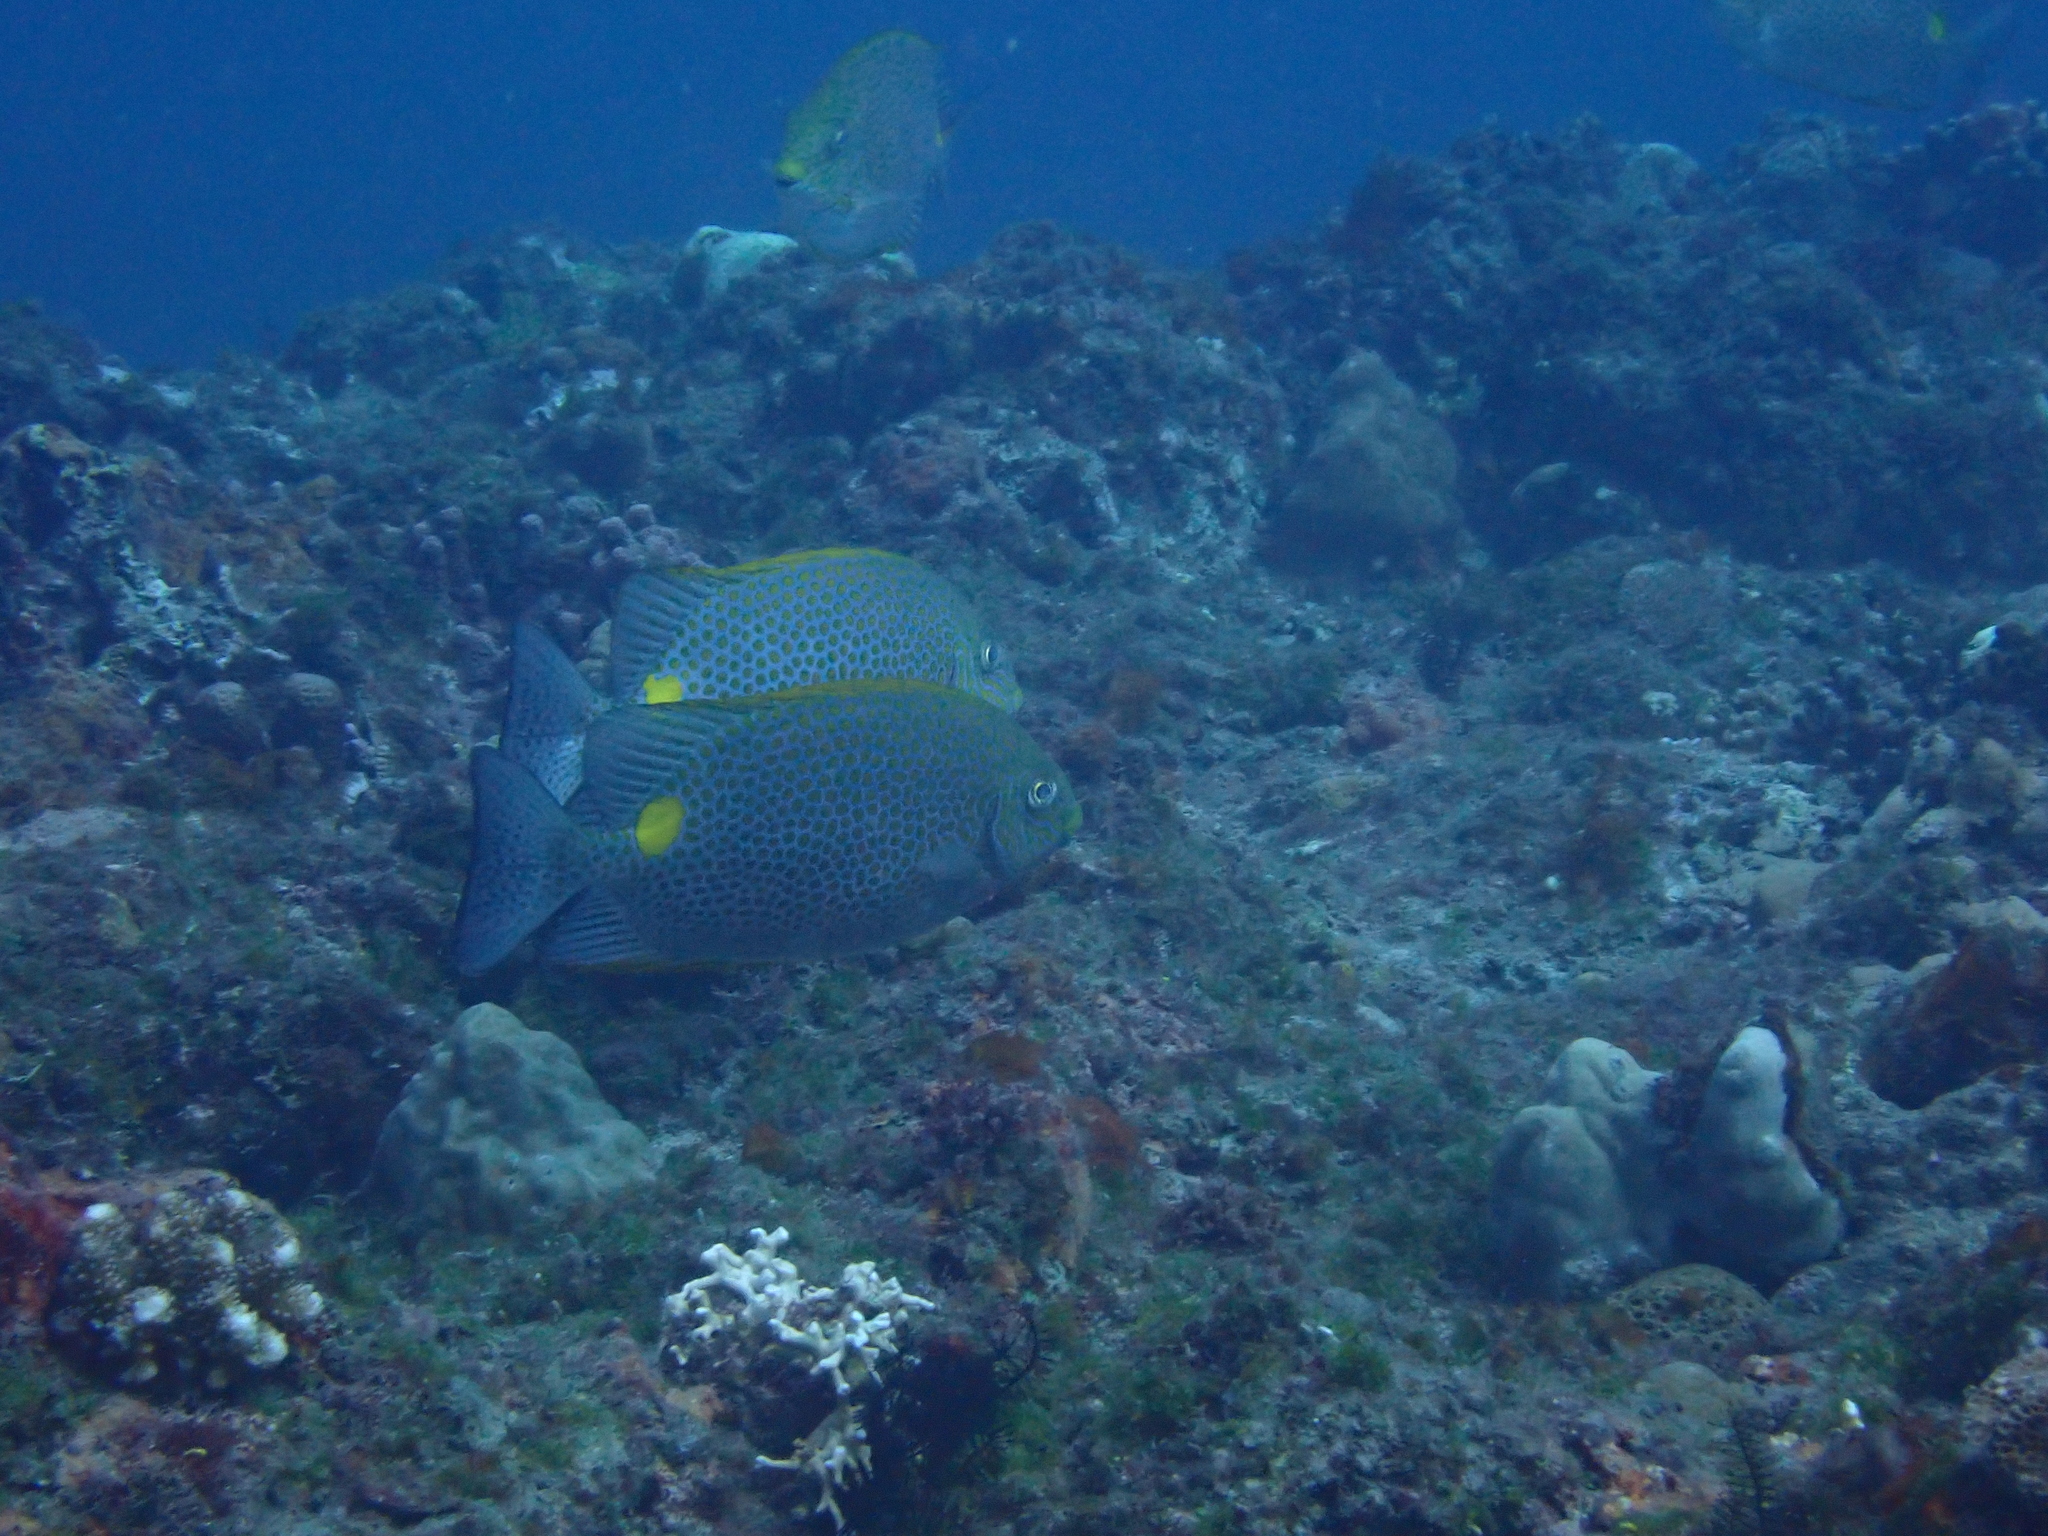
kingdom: Animalia
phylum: Chordata
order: Perciformes
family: Siganidae
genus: Siganus
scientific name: Siganus guttatus
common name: Golden rabbitfish
